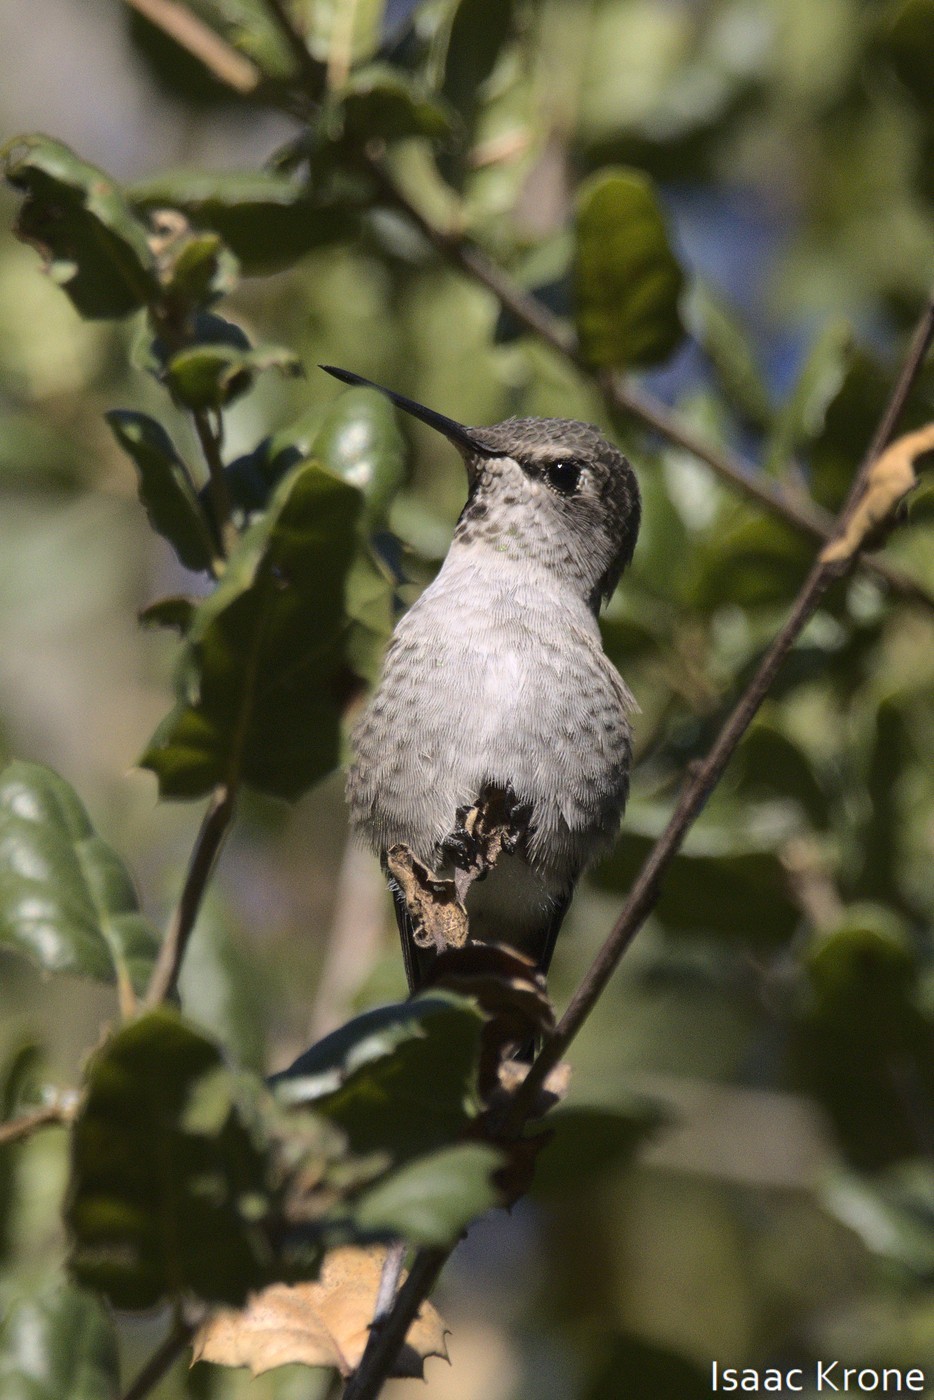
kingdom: Animalia
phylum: Chordata
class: Aves
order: Apodiformes
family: Trochilidae
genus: Calypte
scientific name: Calypte anna
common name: Anna's hummingbird
